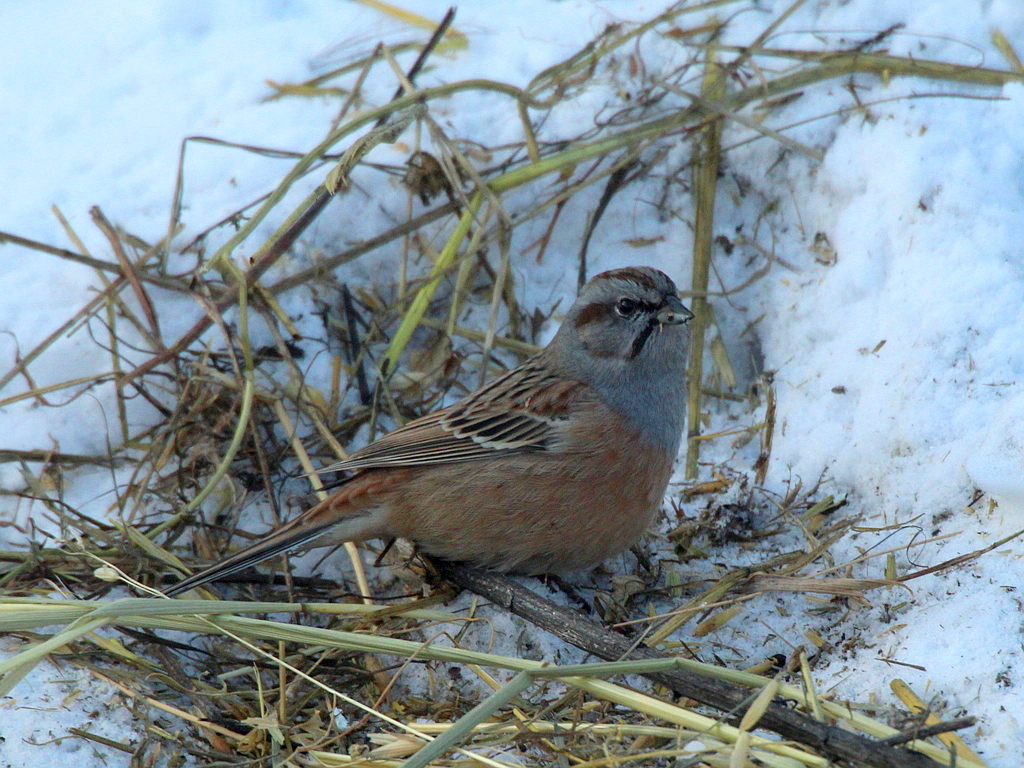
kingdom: Animalia
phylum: Chordata
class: Aves
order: Passeriformes
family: Emberizidae
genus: Emberiza
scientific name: Emberiza godlewskii
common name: Godlewski's bunting
